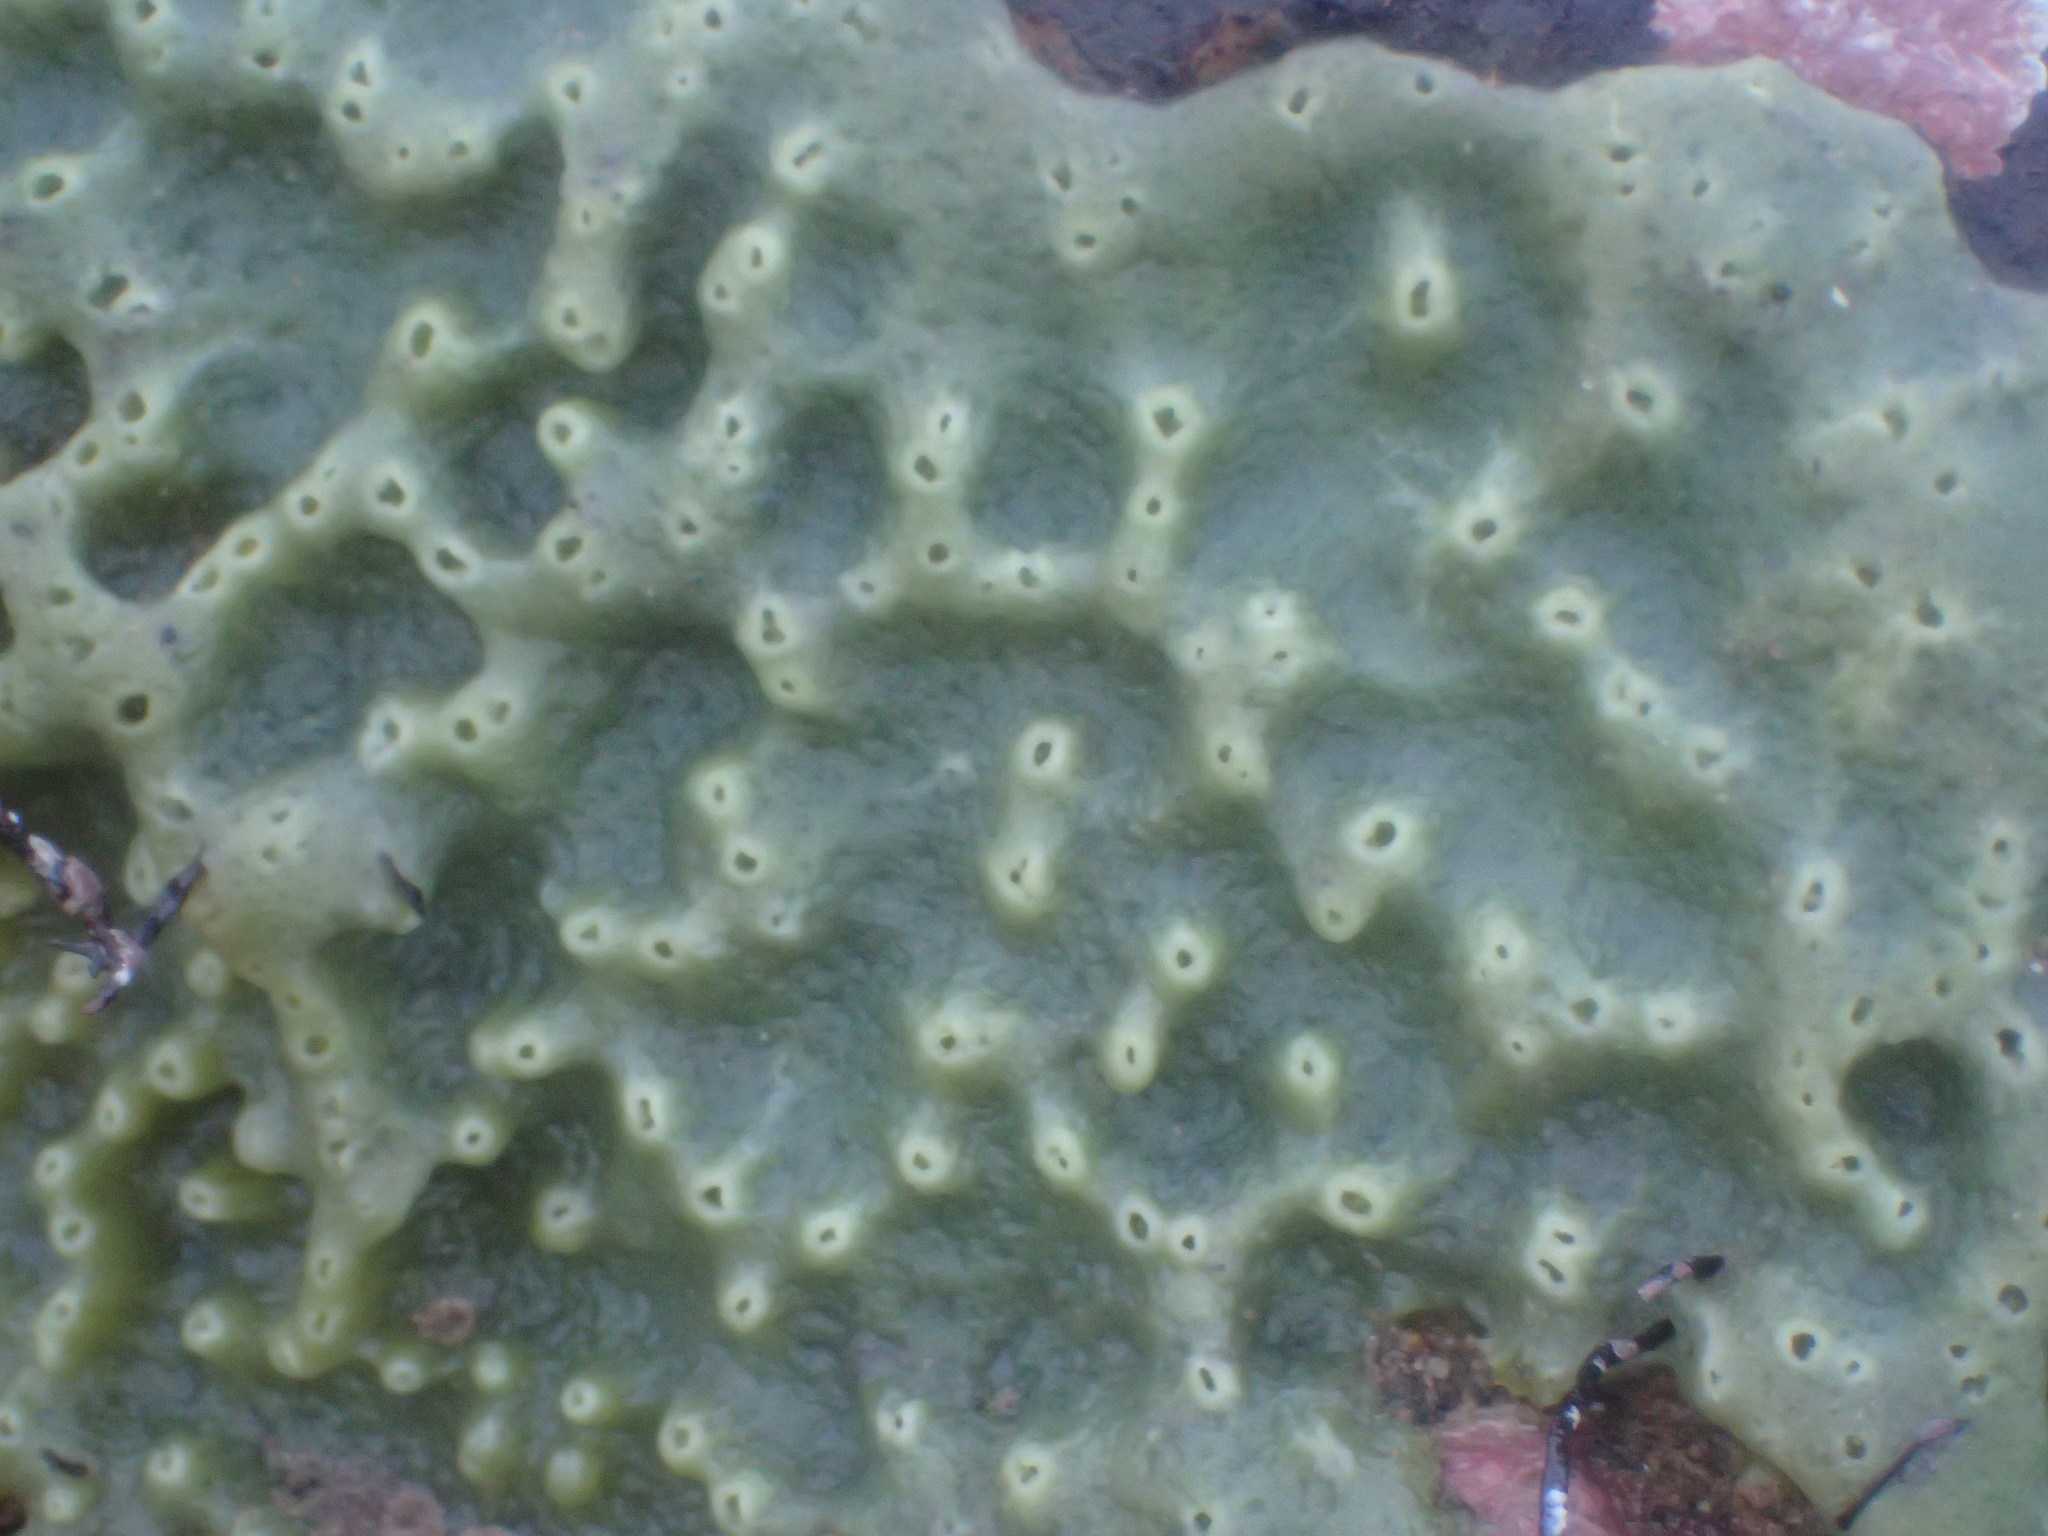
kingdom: Animalia
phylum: Porifera
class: Demospongiae
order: Suberitida
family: Halichondriidae
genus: Halichondria
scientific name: Halichondria panicea
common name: Breadcrumb sponge
